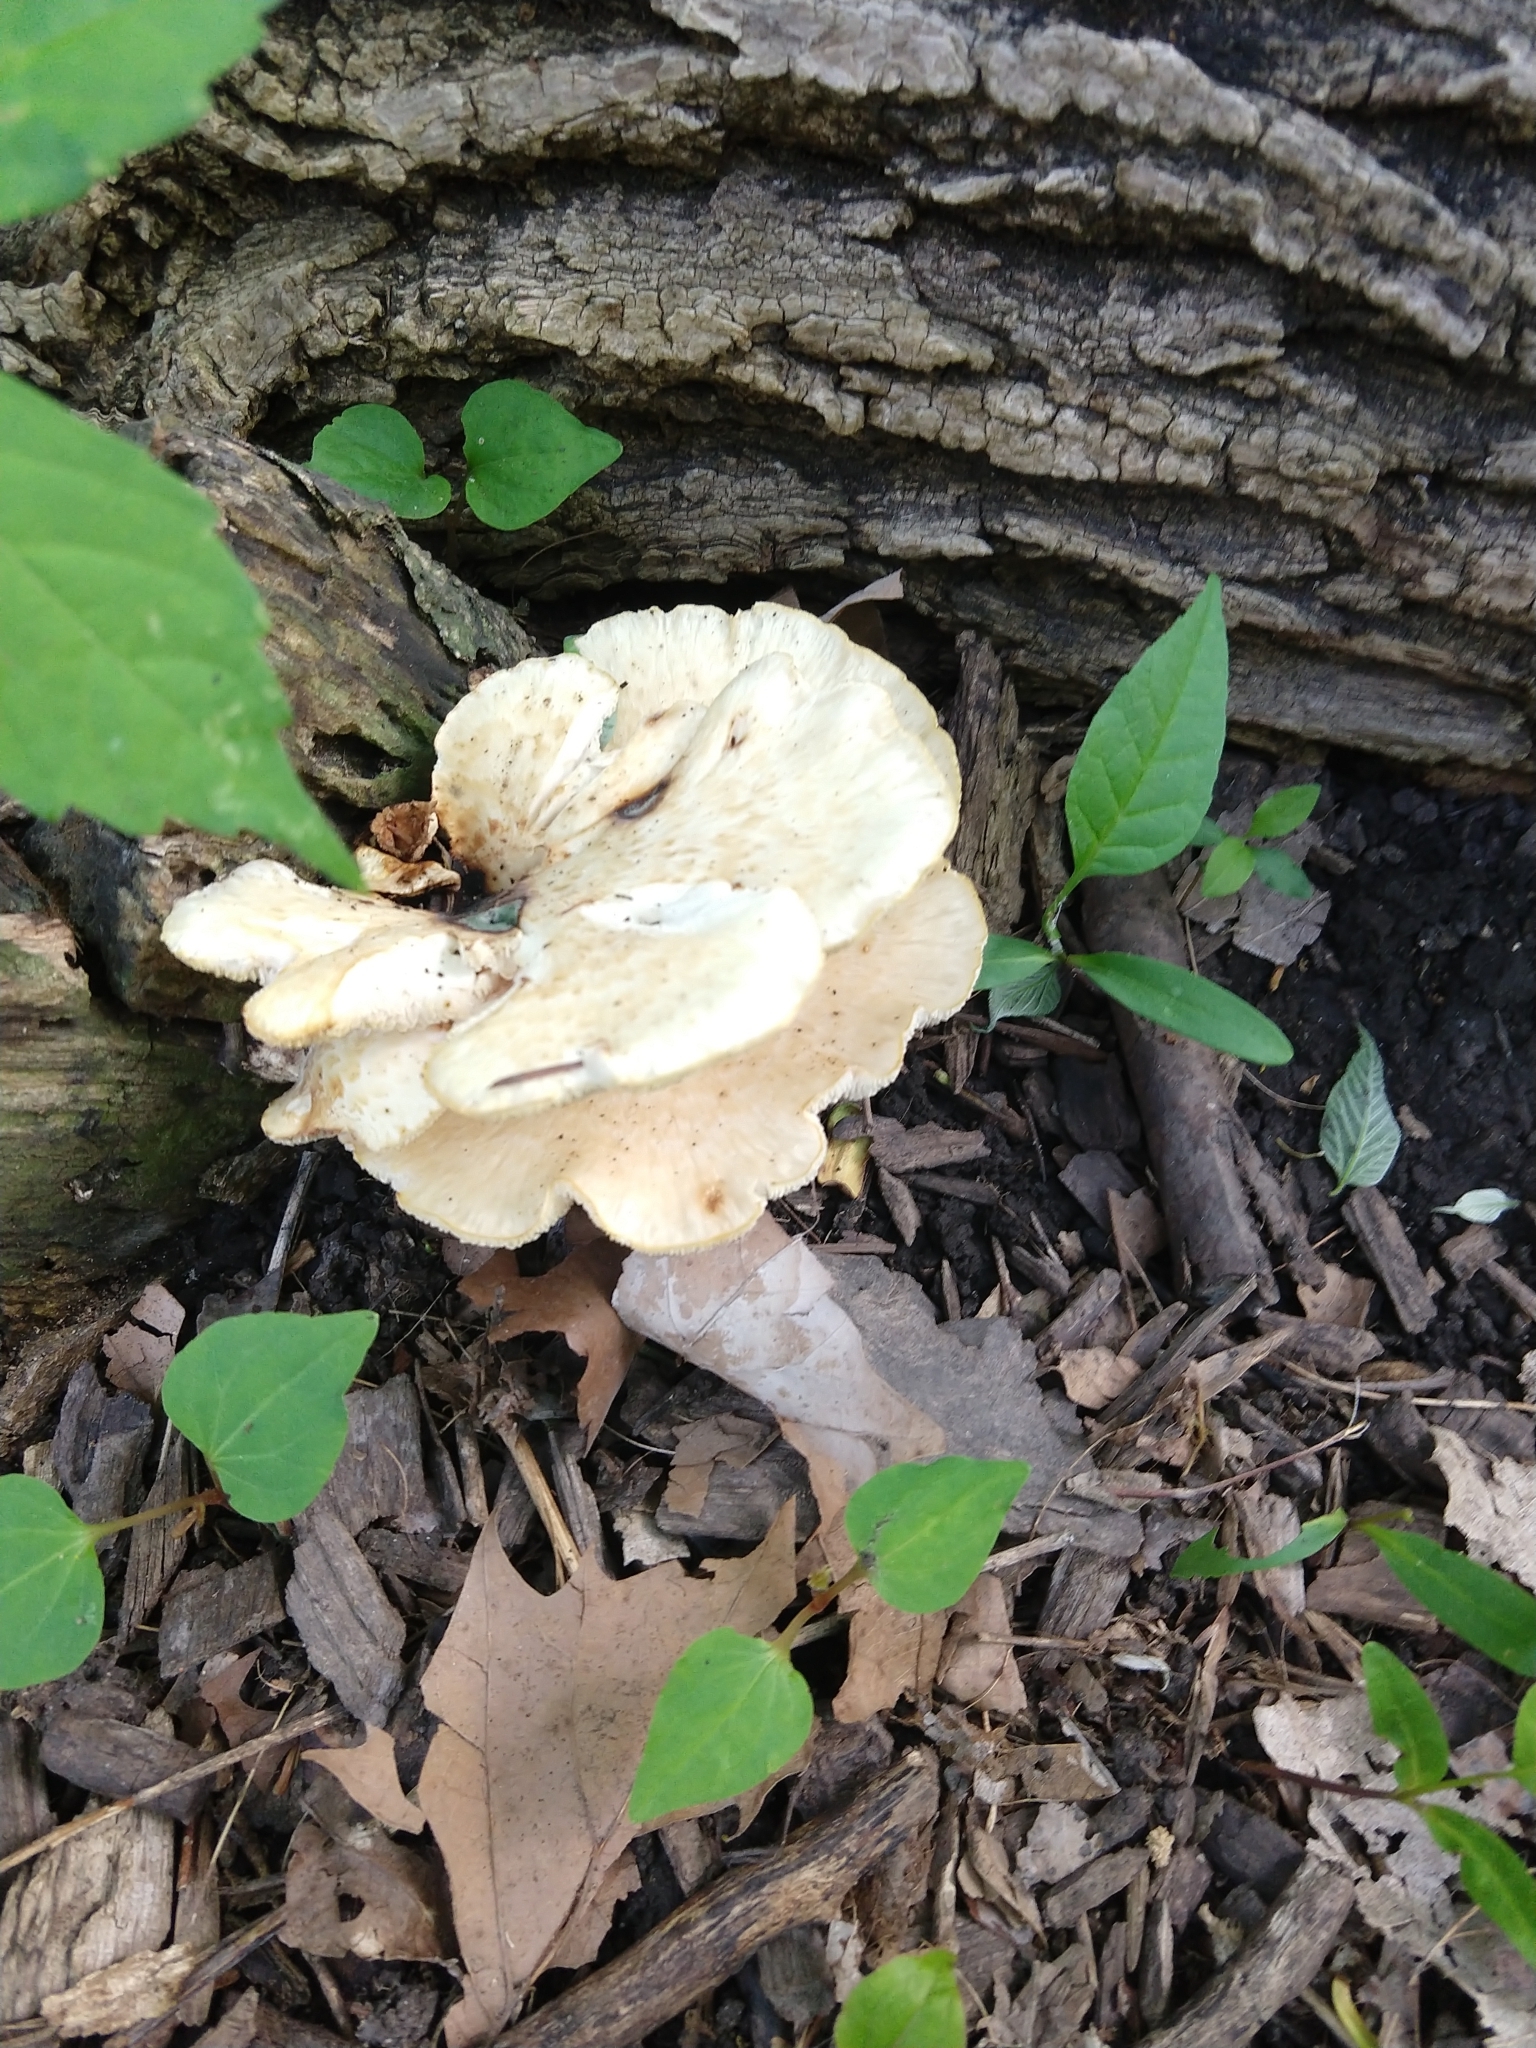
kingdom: Fungi
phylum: Basidiomycota
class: Agaricomycetes
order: Polyporales
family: Polyporaceae
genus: Cerioporus
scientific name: Cerioporus squamosus
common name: Dryad's saddle
